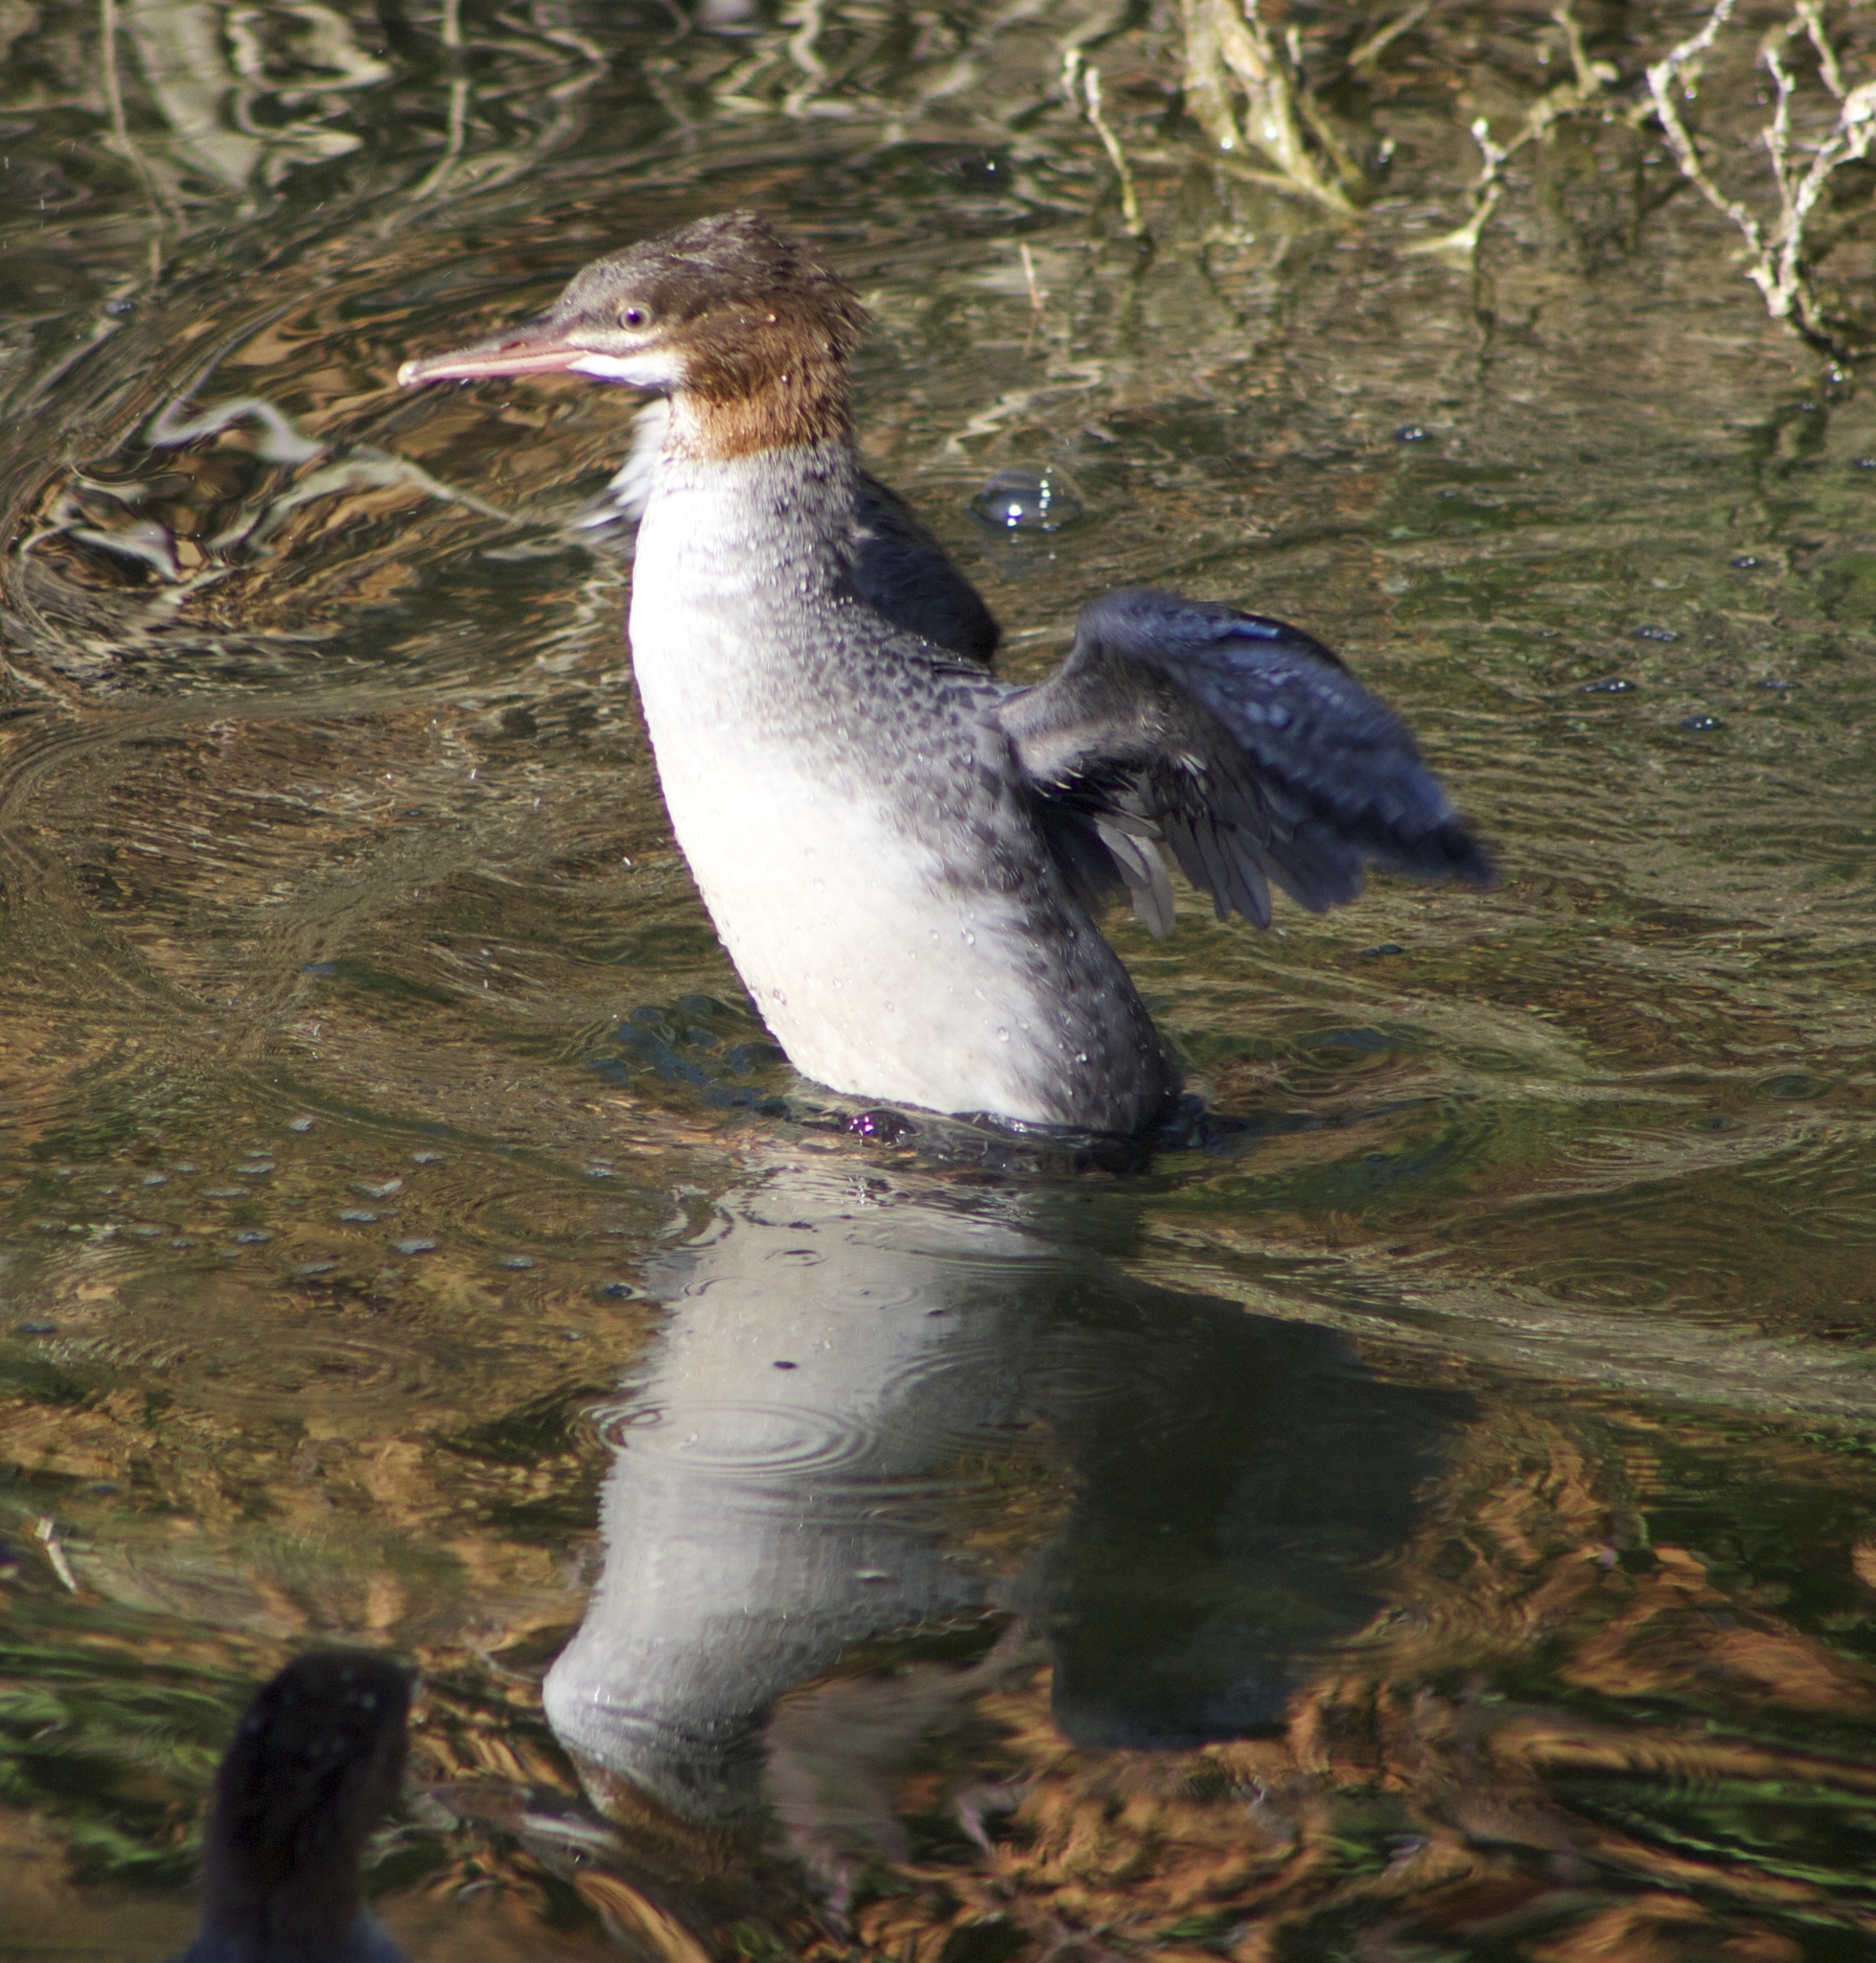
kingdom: Animalia
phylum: Chordata
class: Aves
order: Anseriformes
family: Anatidae
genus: Mergus
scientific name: Mergus merganser
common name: Common merganser
